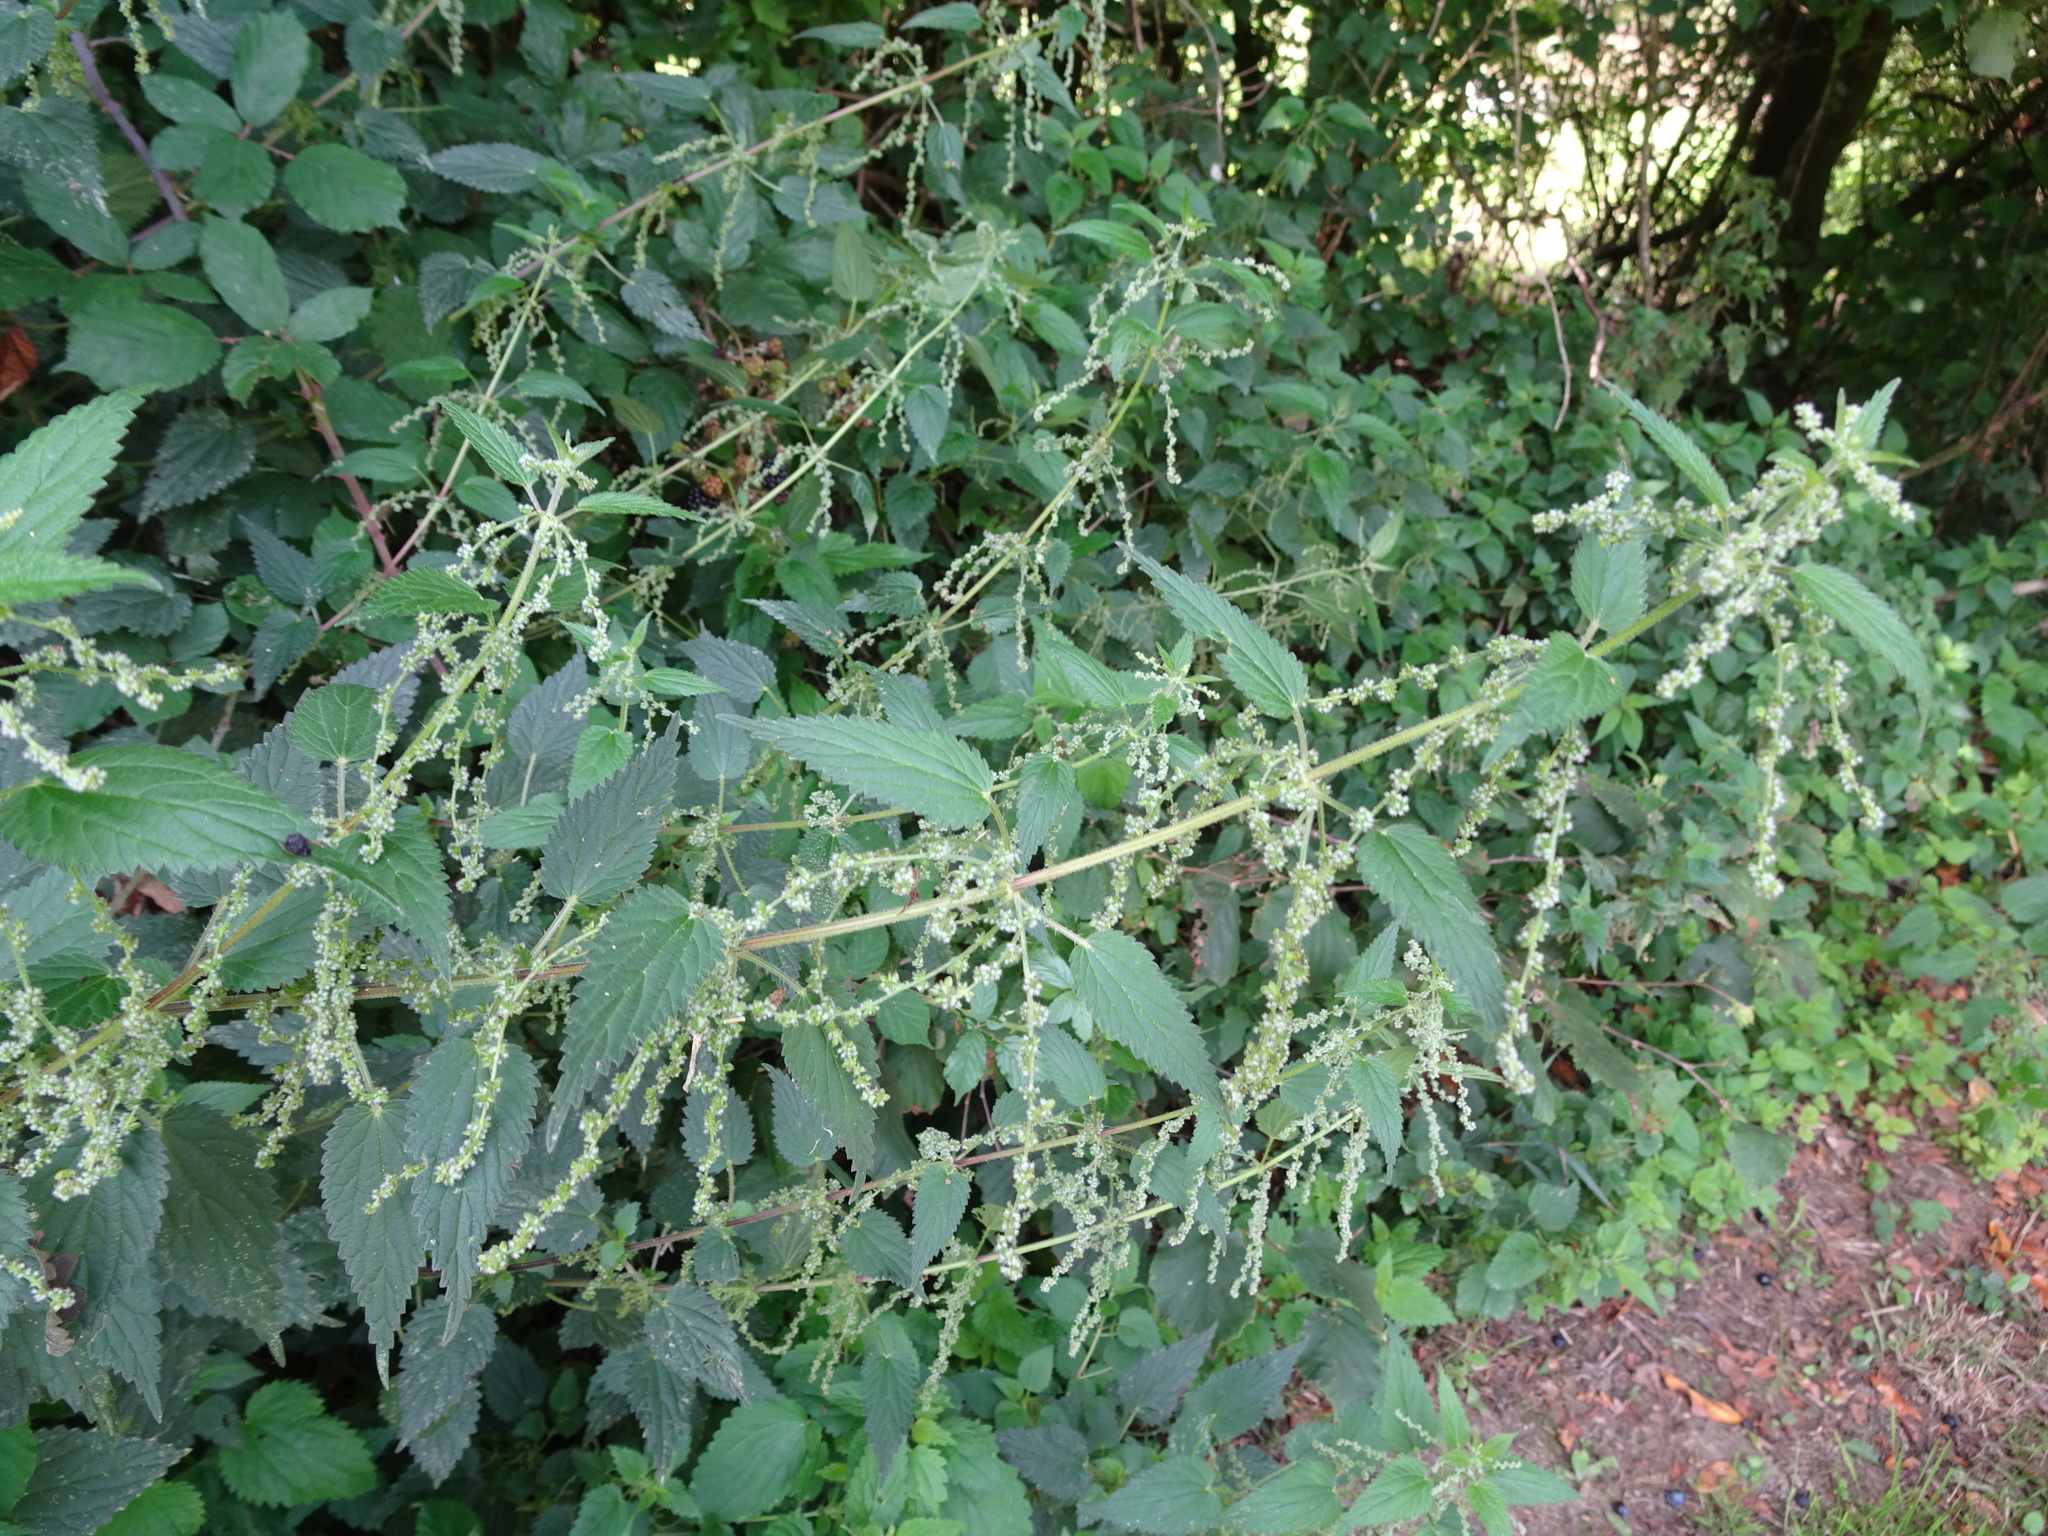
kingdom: Plantae
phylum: Tracheophyta
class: Magnoliopsida
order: Rosales
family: Urticaceae
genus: Urtica
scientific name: Urtica dioica
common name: Common nettle
